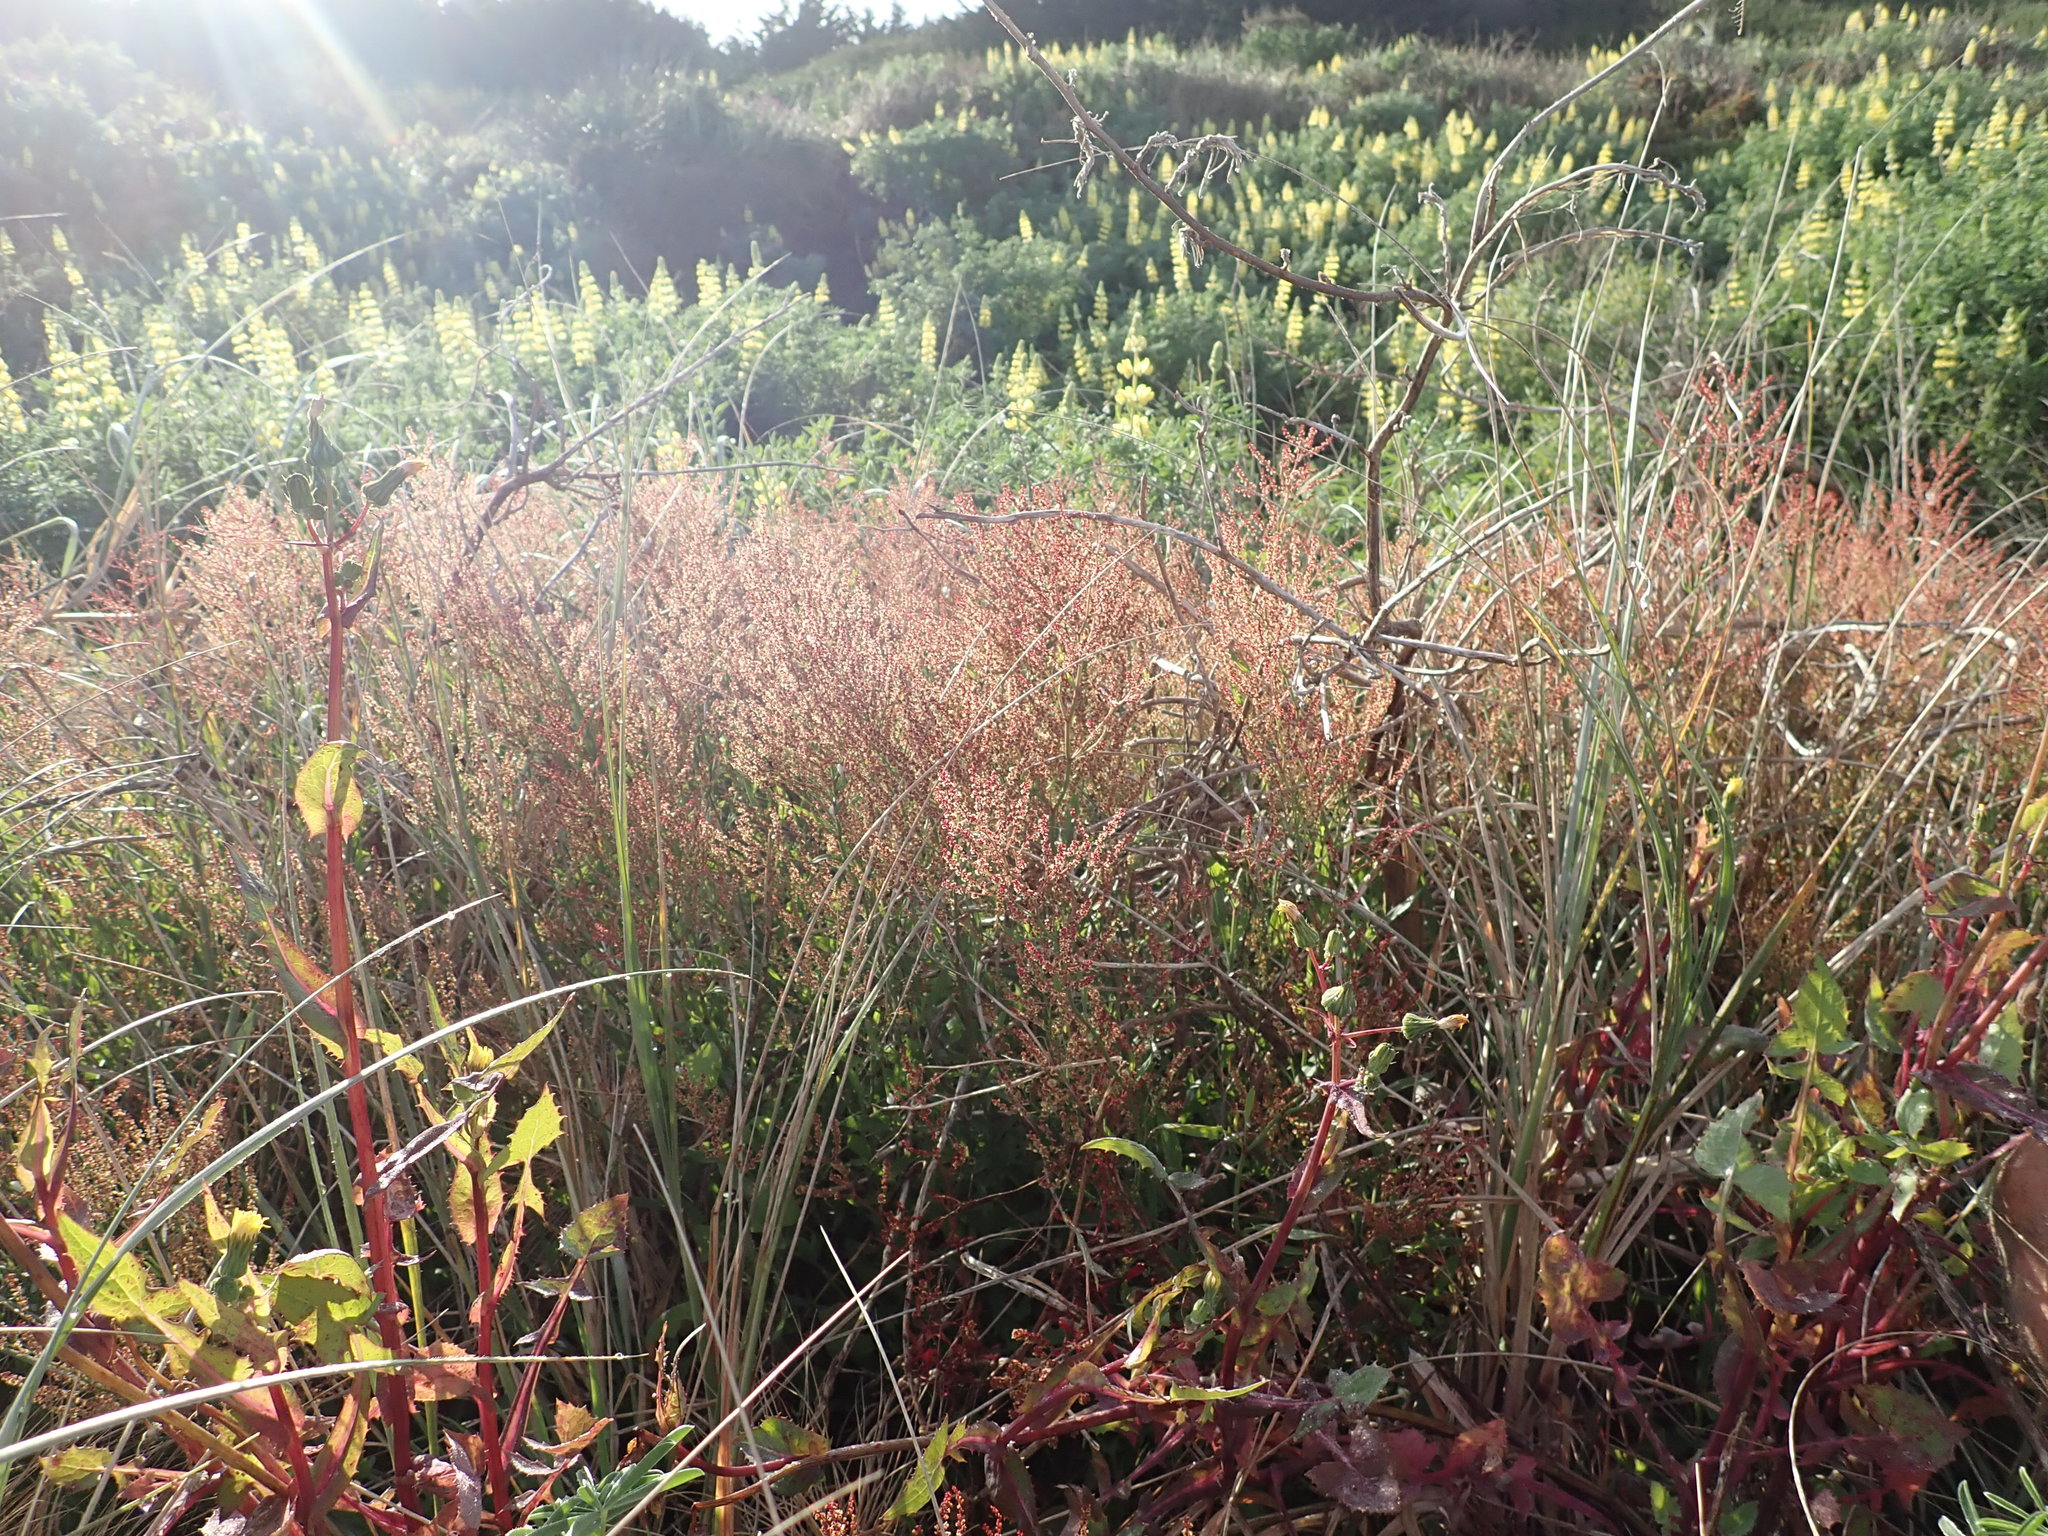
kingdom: Plantae
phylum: Tracheophyta
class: Magnoliopsida
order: Caryophyllales
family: Polygonaceae
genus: Rumex
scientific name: Rumex acetosella
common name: Common sheep sorrel
